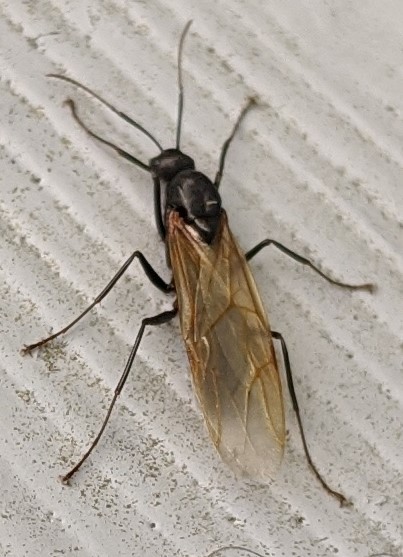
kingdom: Animalia
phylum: Arthropoda
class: Insecta
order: Hymenoptera
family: Formicidae
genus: Camponotus
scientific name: Camponotus pennsylvanicus
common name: Black carpenter ant
